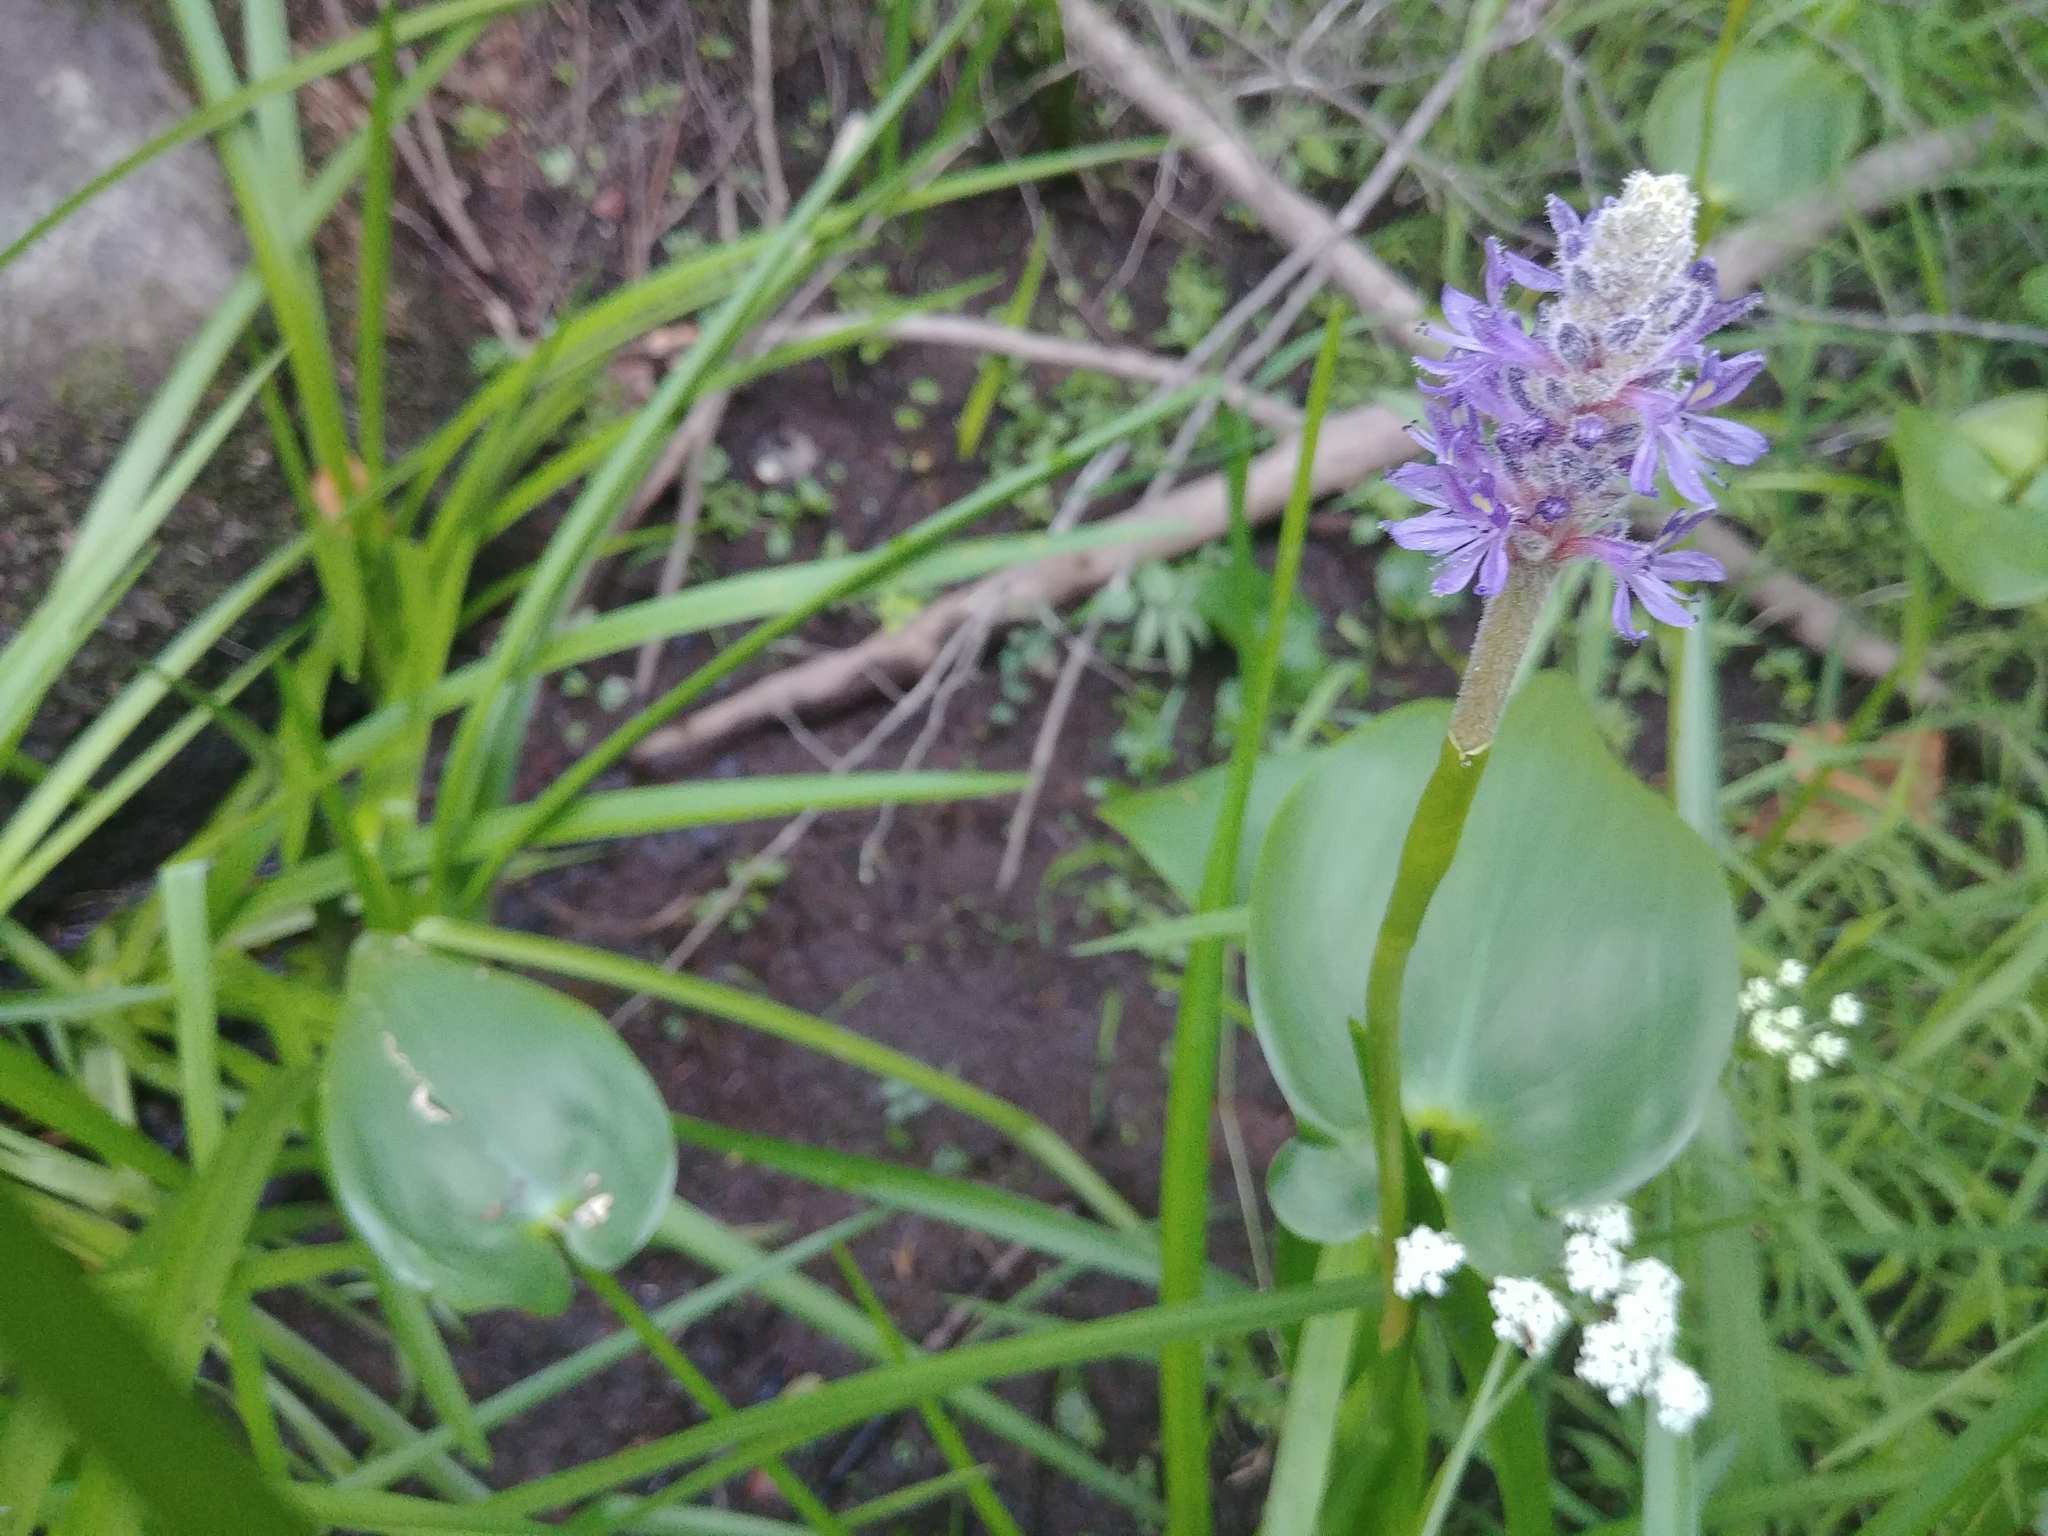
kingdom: Plantae
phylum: Tracheophyta
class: Liliopsida
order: Commelinales
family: Pontederiaceae
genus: Pontederia
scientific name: Pontederia cordata
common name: Pickerelweed
